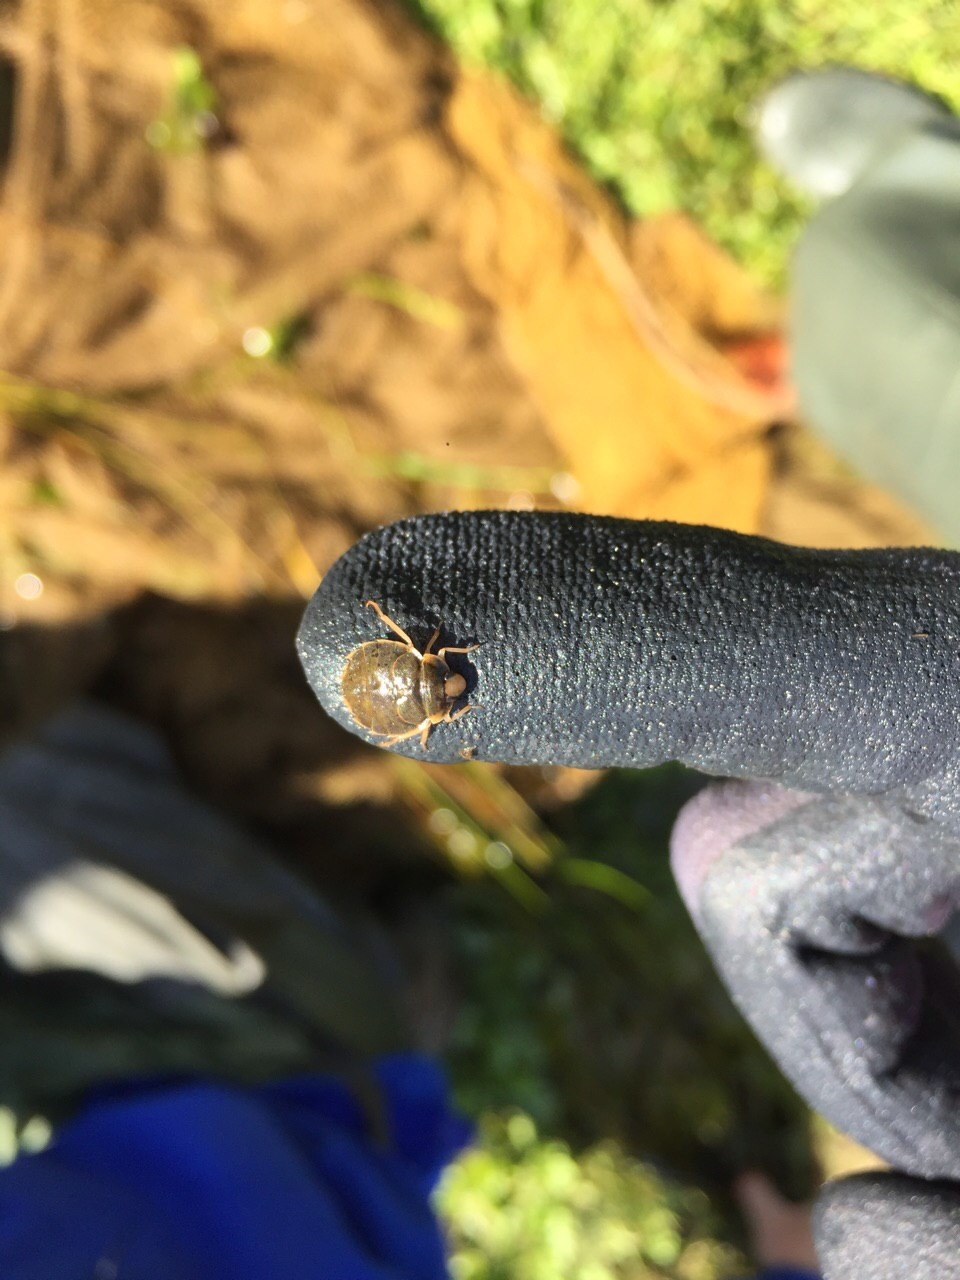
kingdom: Animalia
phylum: Arthropoda
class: Insecta
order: Hemiptera
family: Aphelocheiridae
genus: Aphelocheirus
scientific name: Aphelocheirus aestivalis
